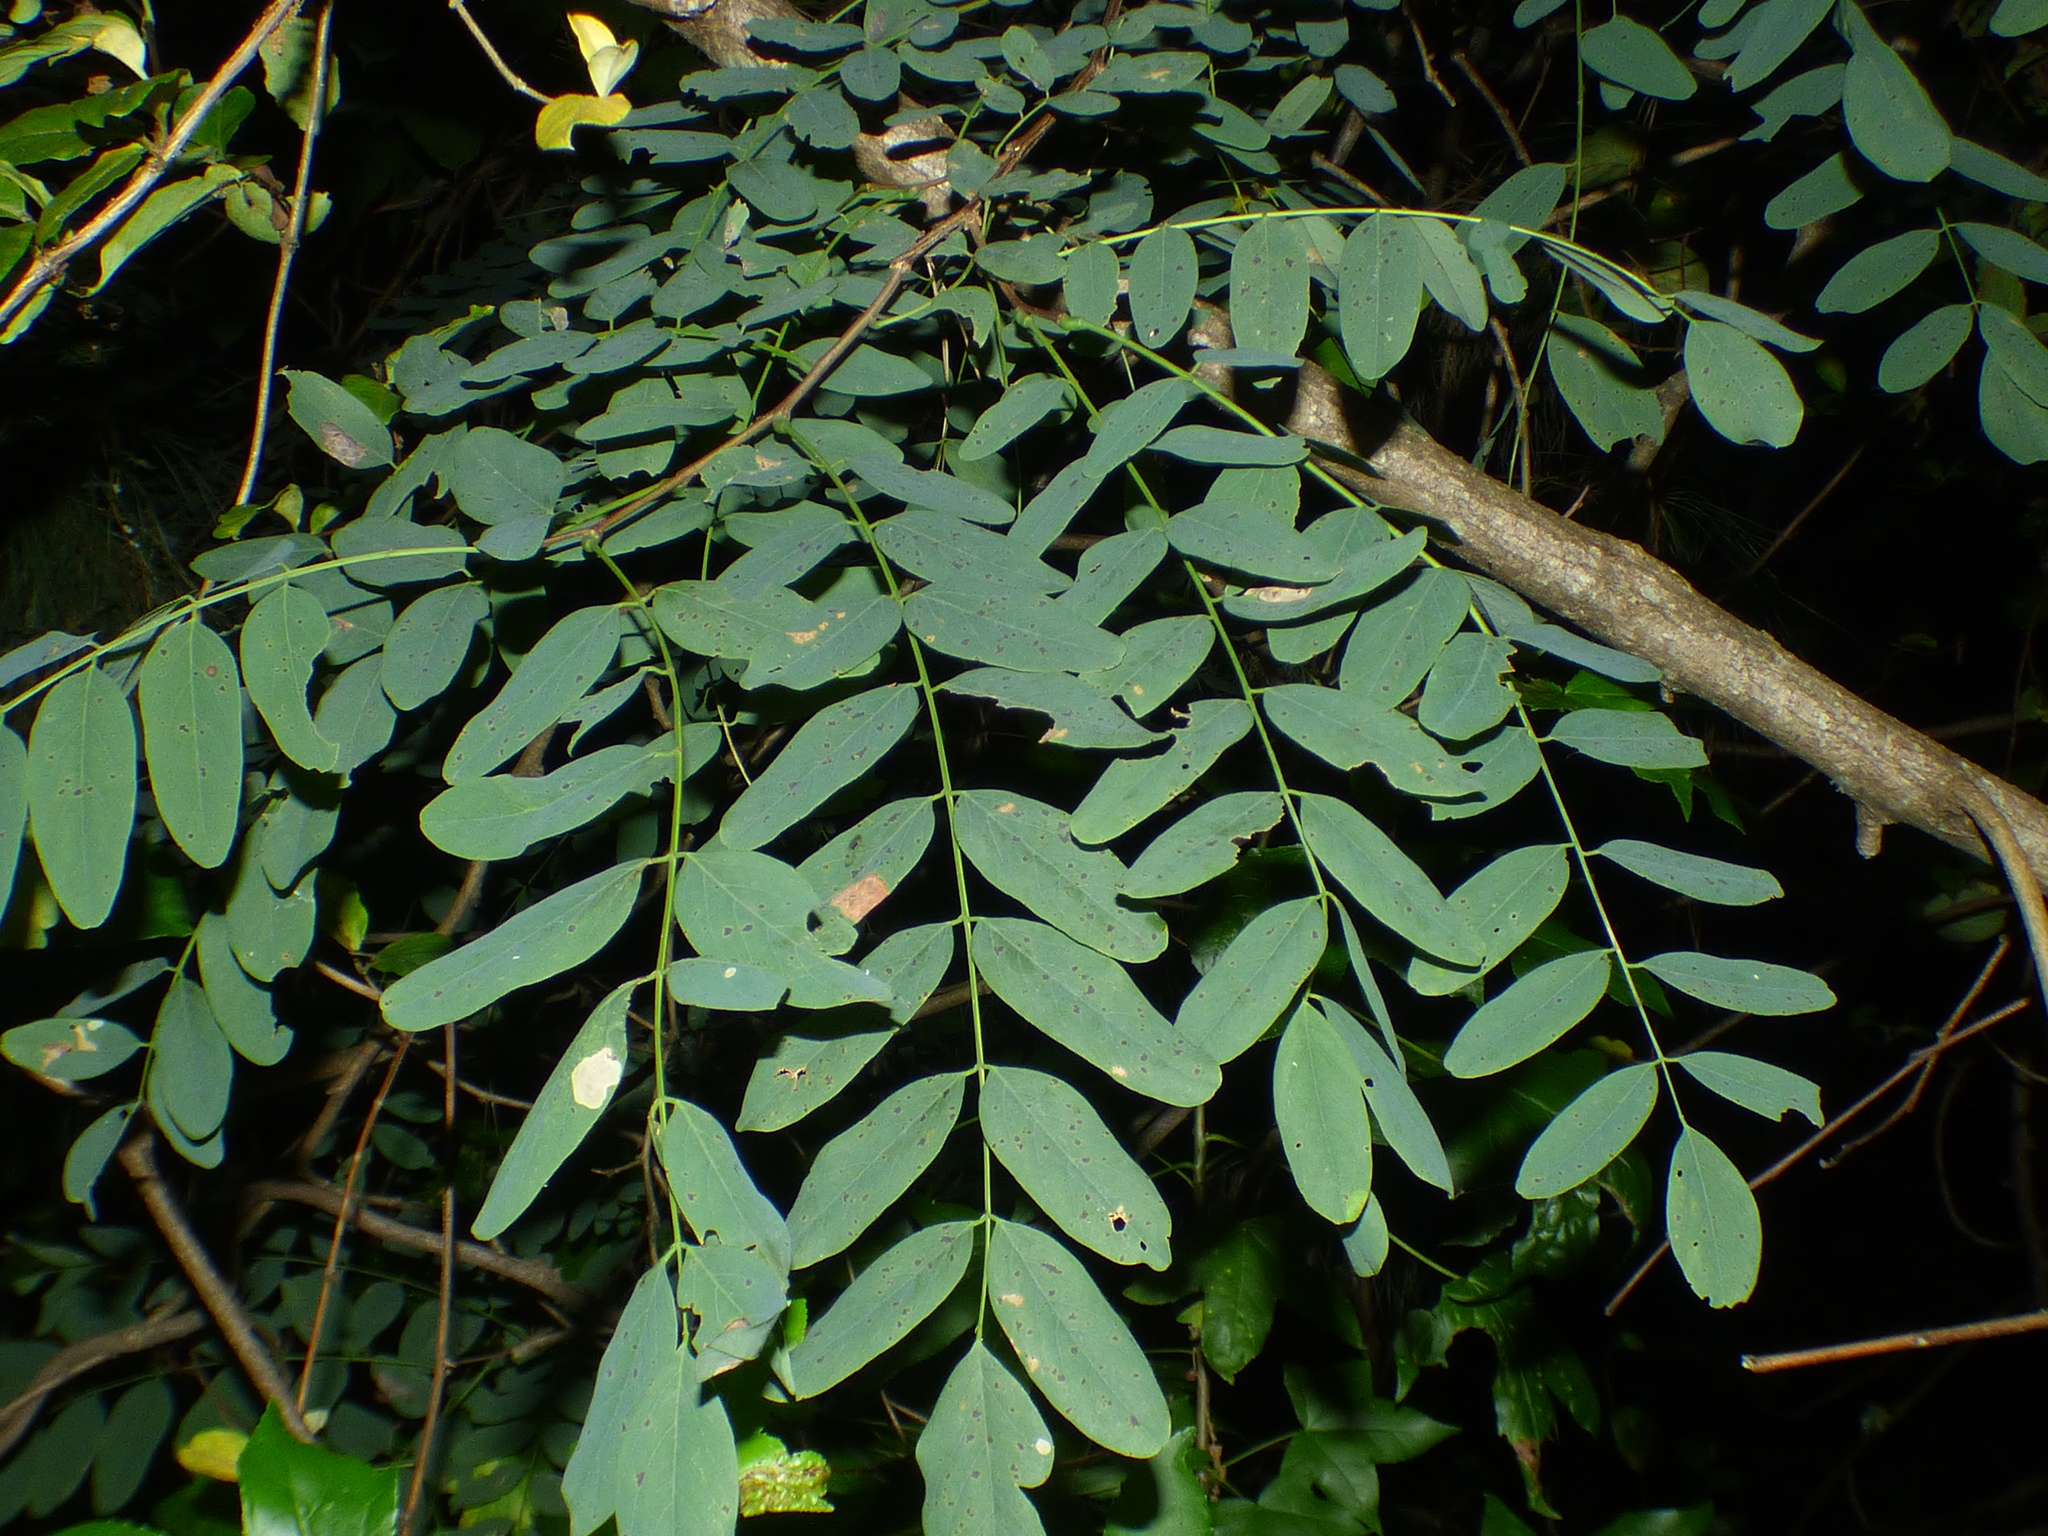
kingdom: Plantae
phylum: Tracheophyta
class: Magnoliopsida
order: Fabales
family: Fabaceae
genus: Robinia
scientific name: Robinia pseudoacacia
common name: Black locust
